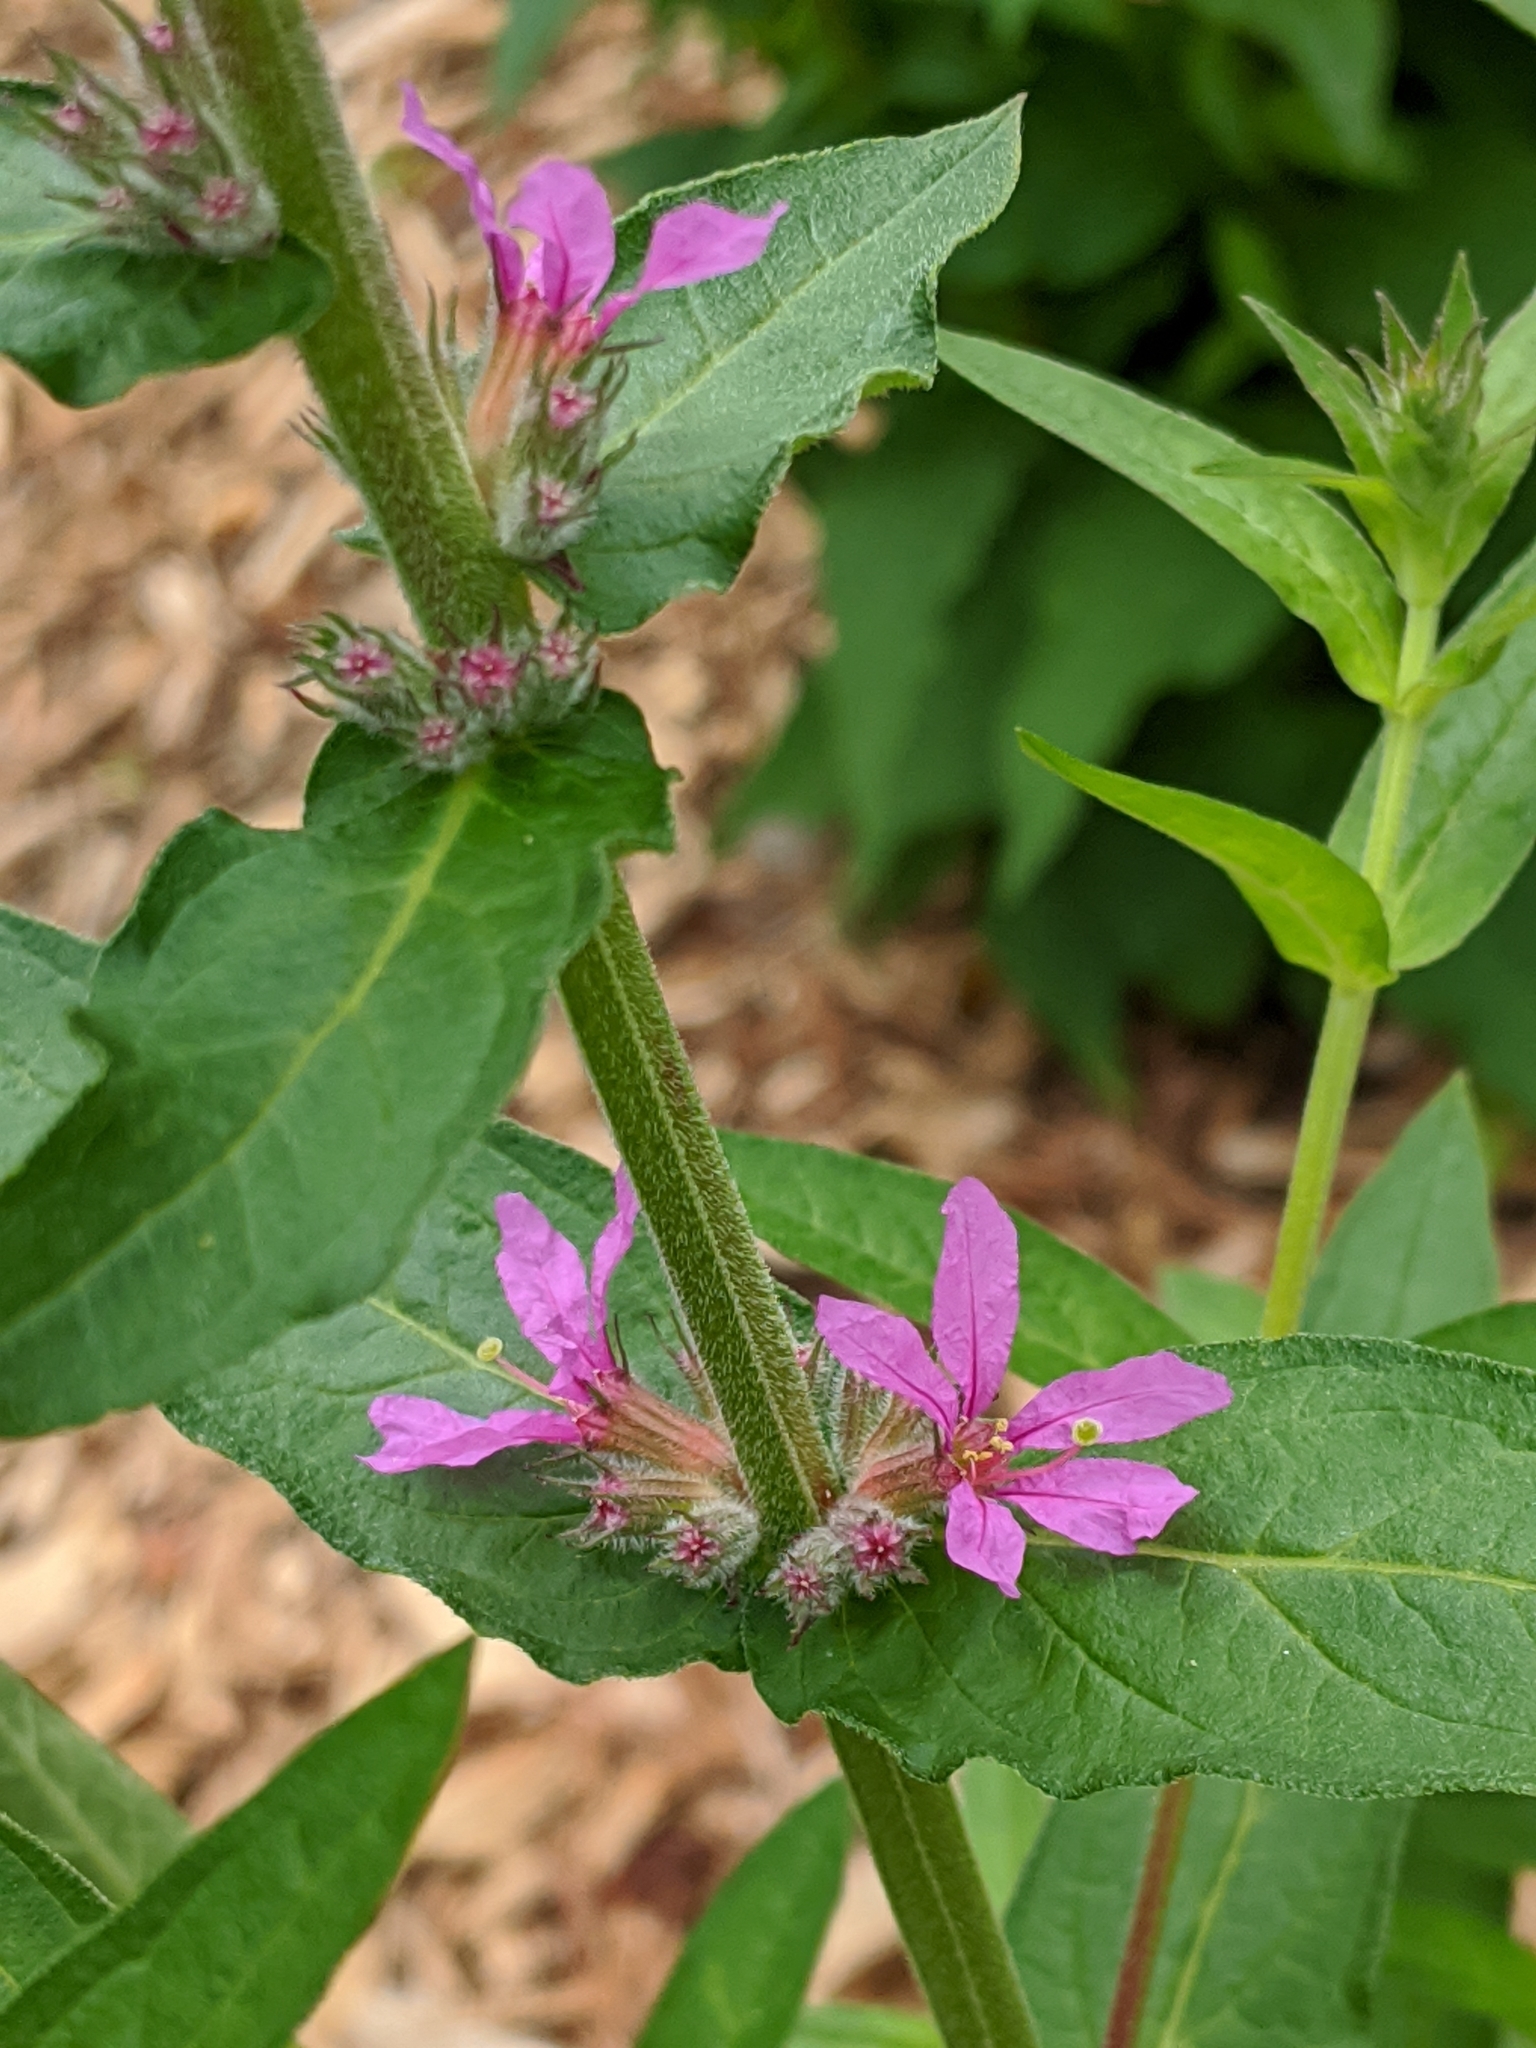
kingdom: Plantae
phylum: Tracheophyta
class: Magnoliopsida
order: Myrtales
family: Lythraceae
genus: Lythrum
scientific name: Lythrum salicaria
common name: Purple loosestrife
